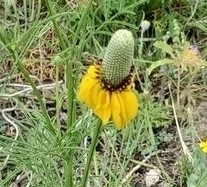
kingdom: Plantae
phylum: Tracheophyta
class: Magnoliopsida
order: Asterales
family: Asteraceae
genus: Ratibida
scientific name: Ratibida columnifera
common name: Prairie coneflower
